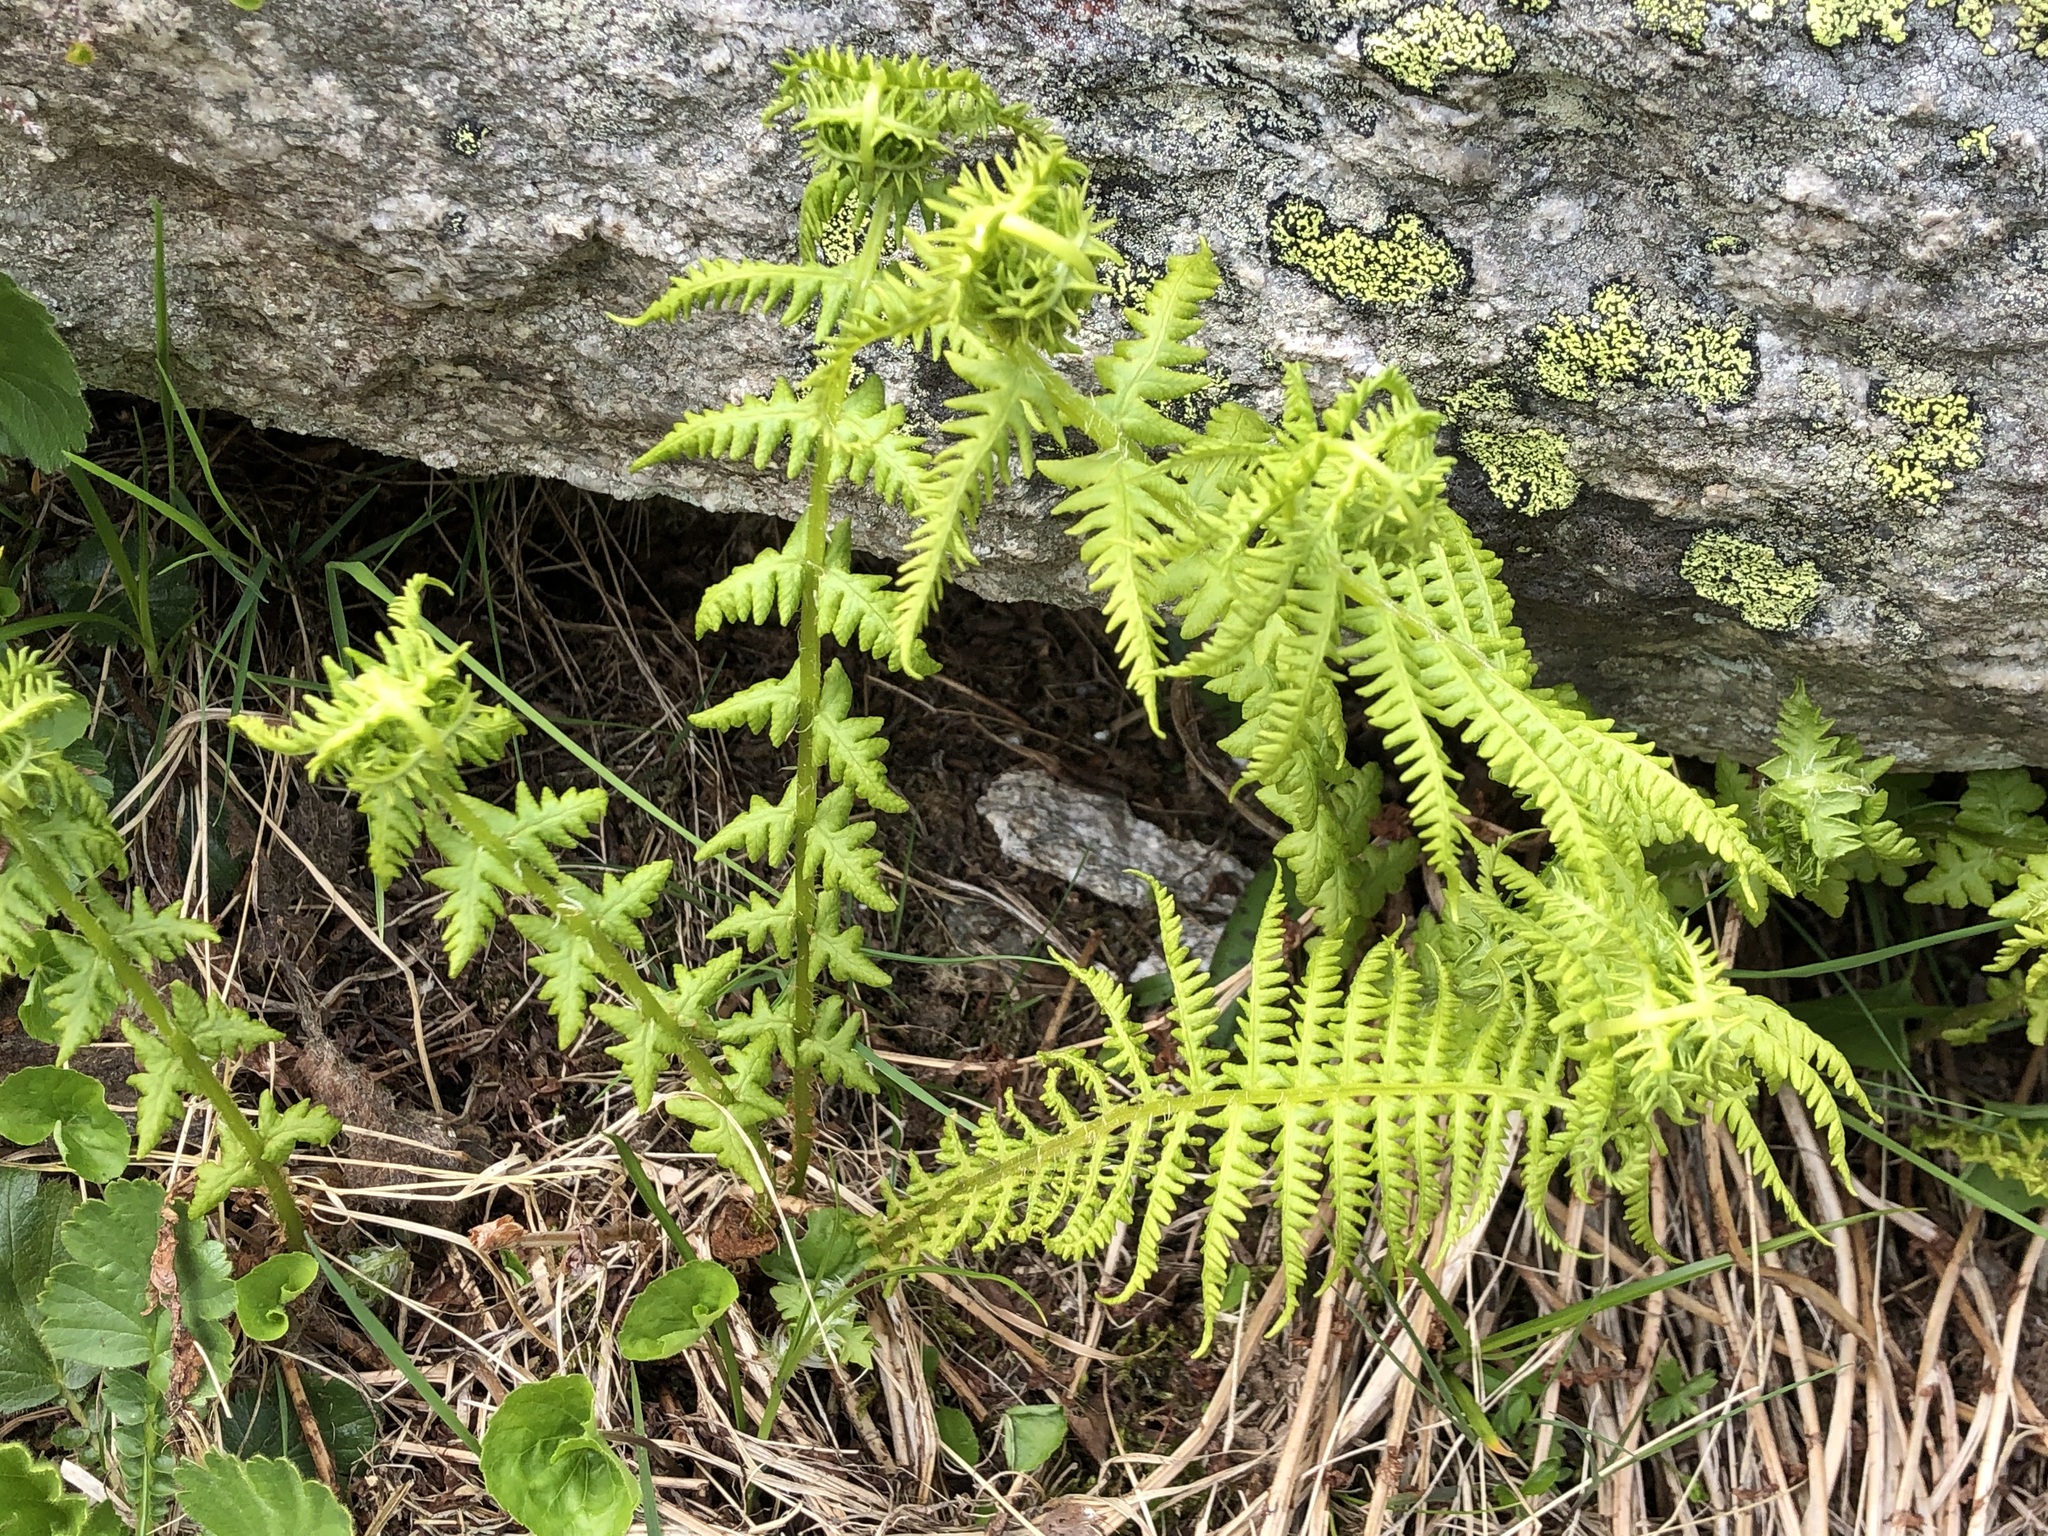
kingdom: Plantae
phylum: Tracheophyta
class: Polypodiopsida
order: Polypodiales
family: Thelypteridaceae
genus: Oreopteris
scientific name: Oreopteris limbosperma
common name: Lemon-scented fern
